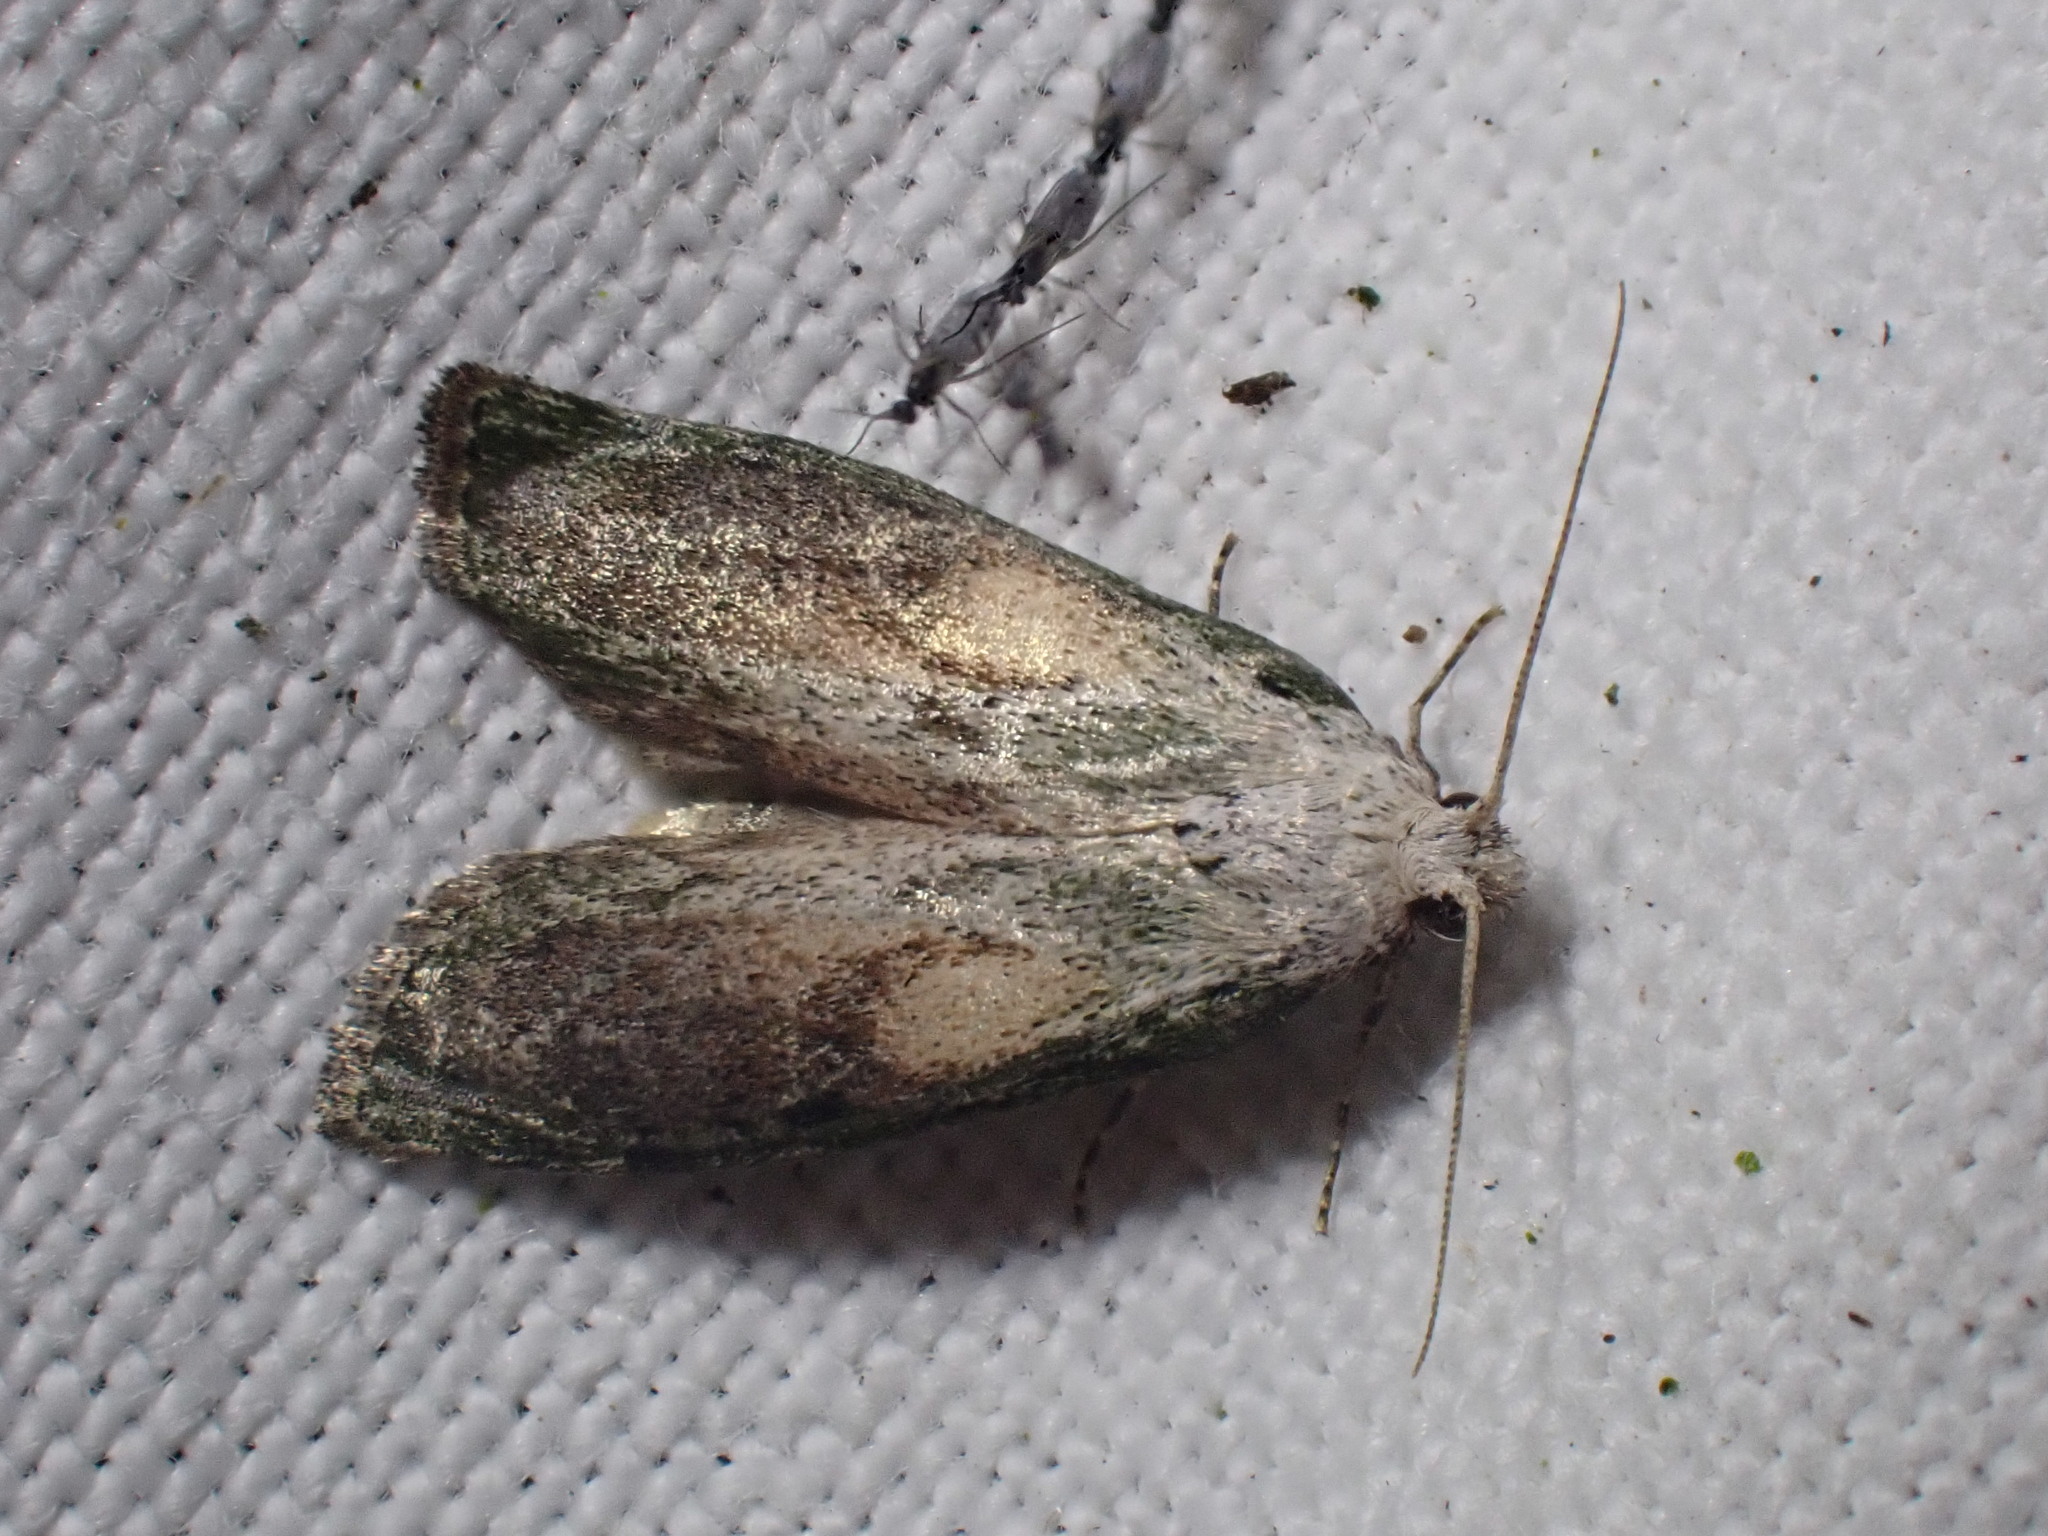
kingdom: Animalia
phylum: Arthropoda
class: Insecta
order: Lepidoptera
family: Pyralidae
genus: Aphomia
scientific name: Aphomia sociella
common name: Bee moth
